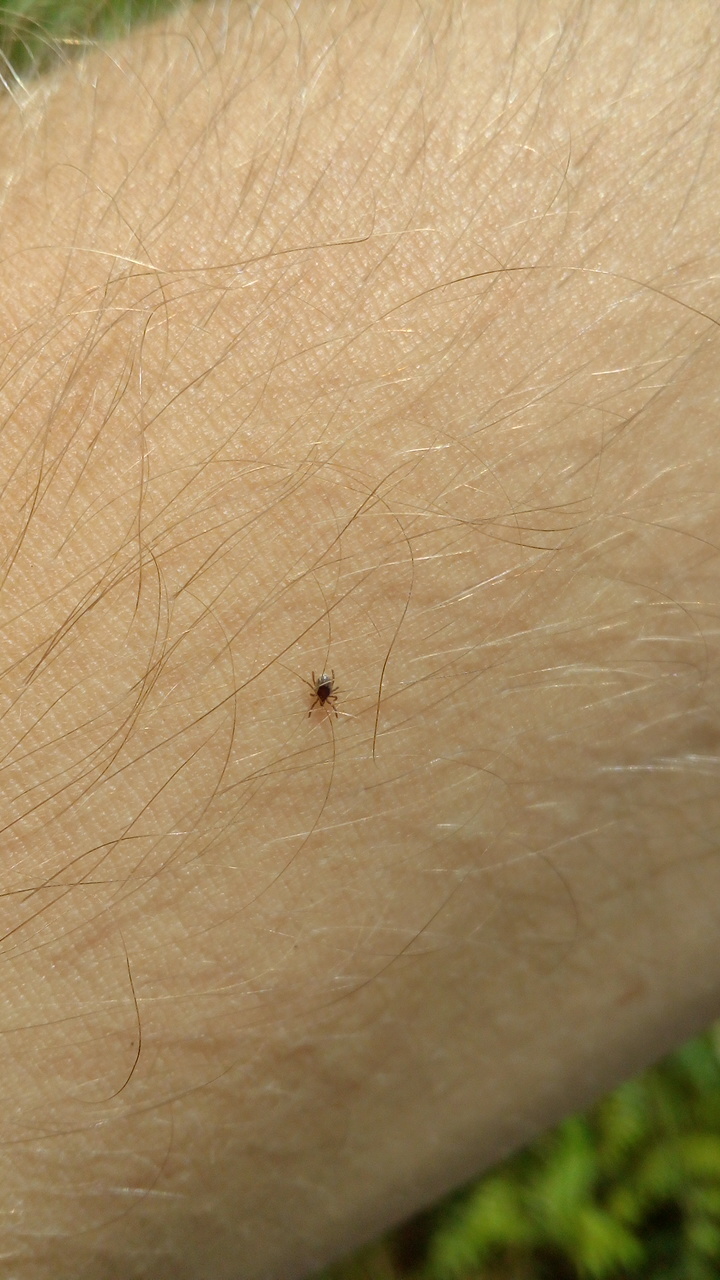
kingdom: Animalia
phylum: Arthropoda
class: Arachnida
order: Ixodida
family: Ixodidae
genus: Ixodes
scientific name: Ixodes
